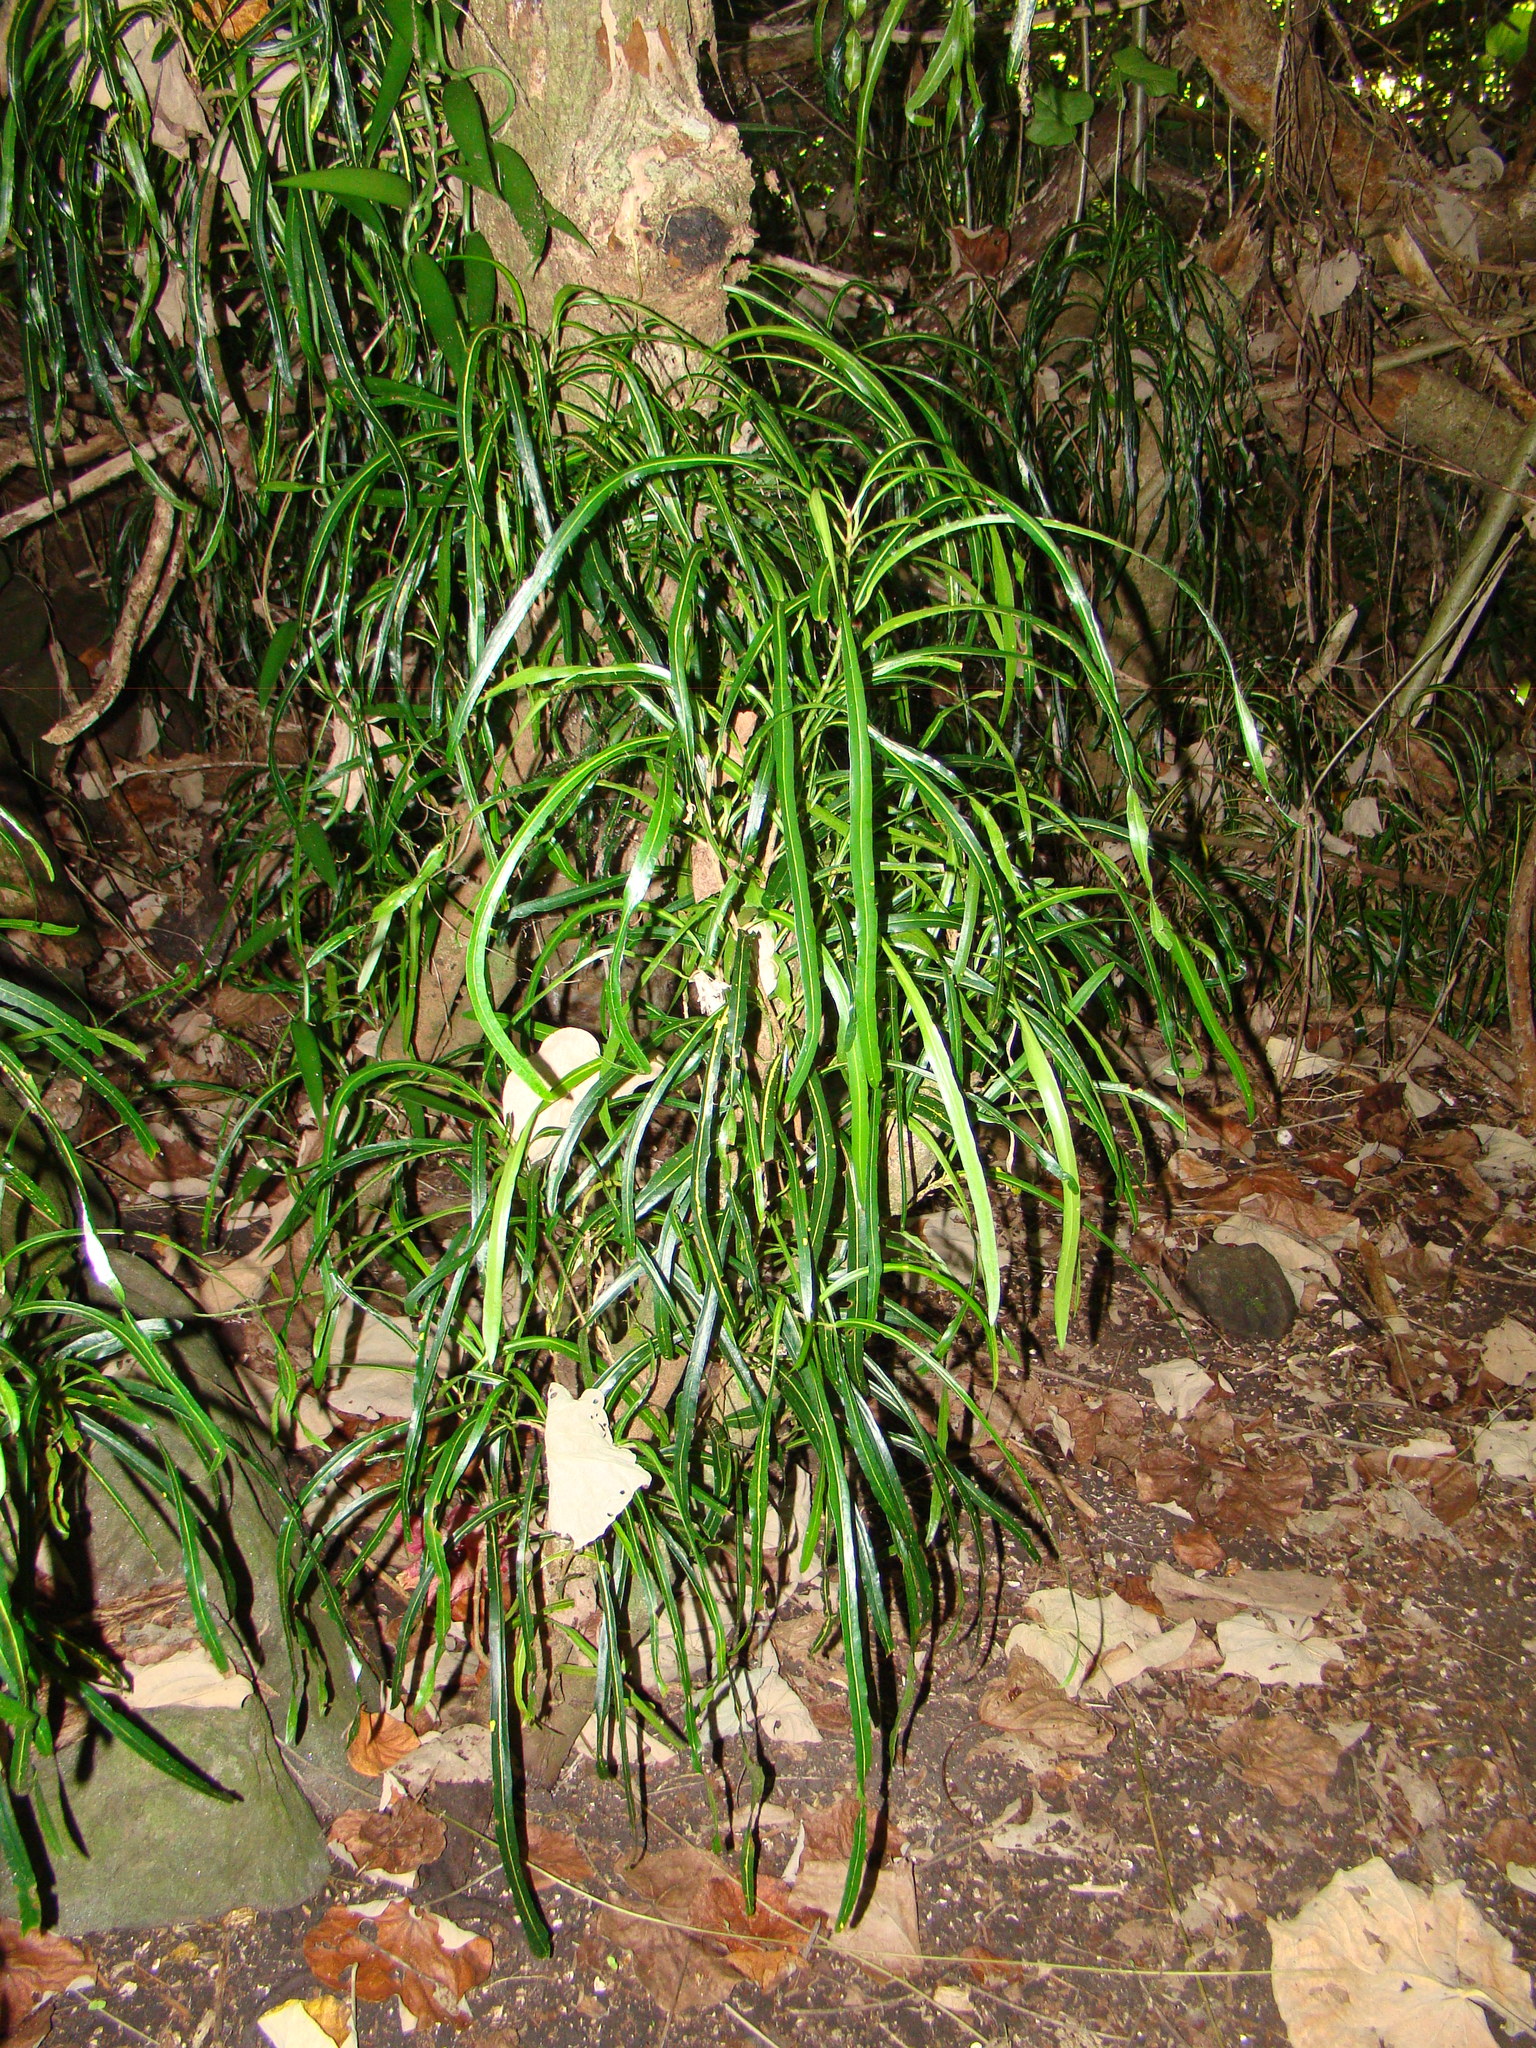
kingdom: Plantae
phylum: Tracheophyta
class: Magnoliopsida
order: Malpighiales
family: Euphorbiaceae
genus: Codiaeum
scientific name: Codiaeum variegatum
